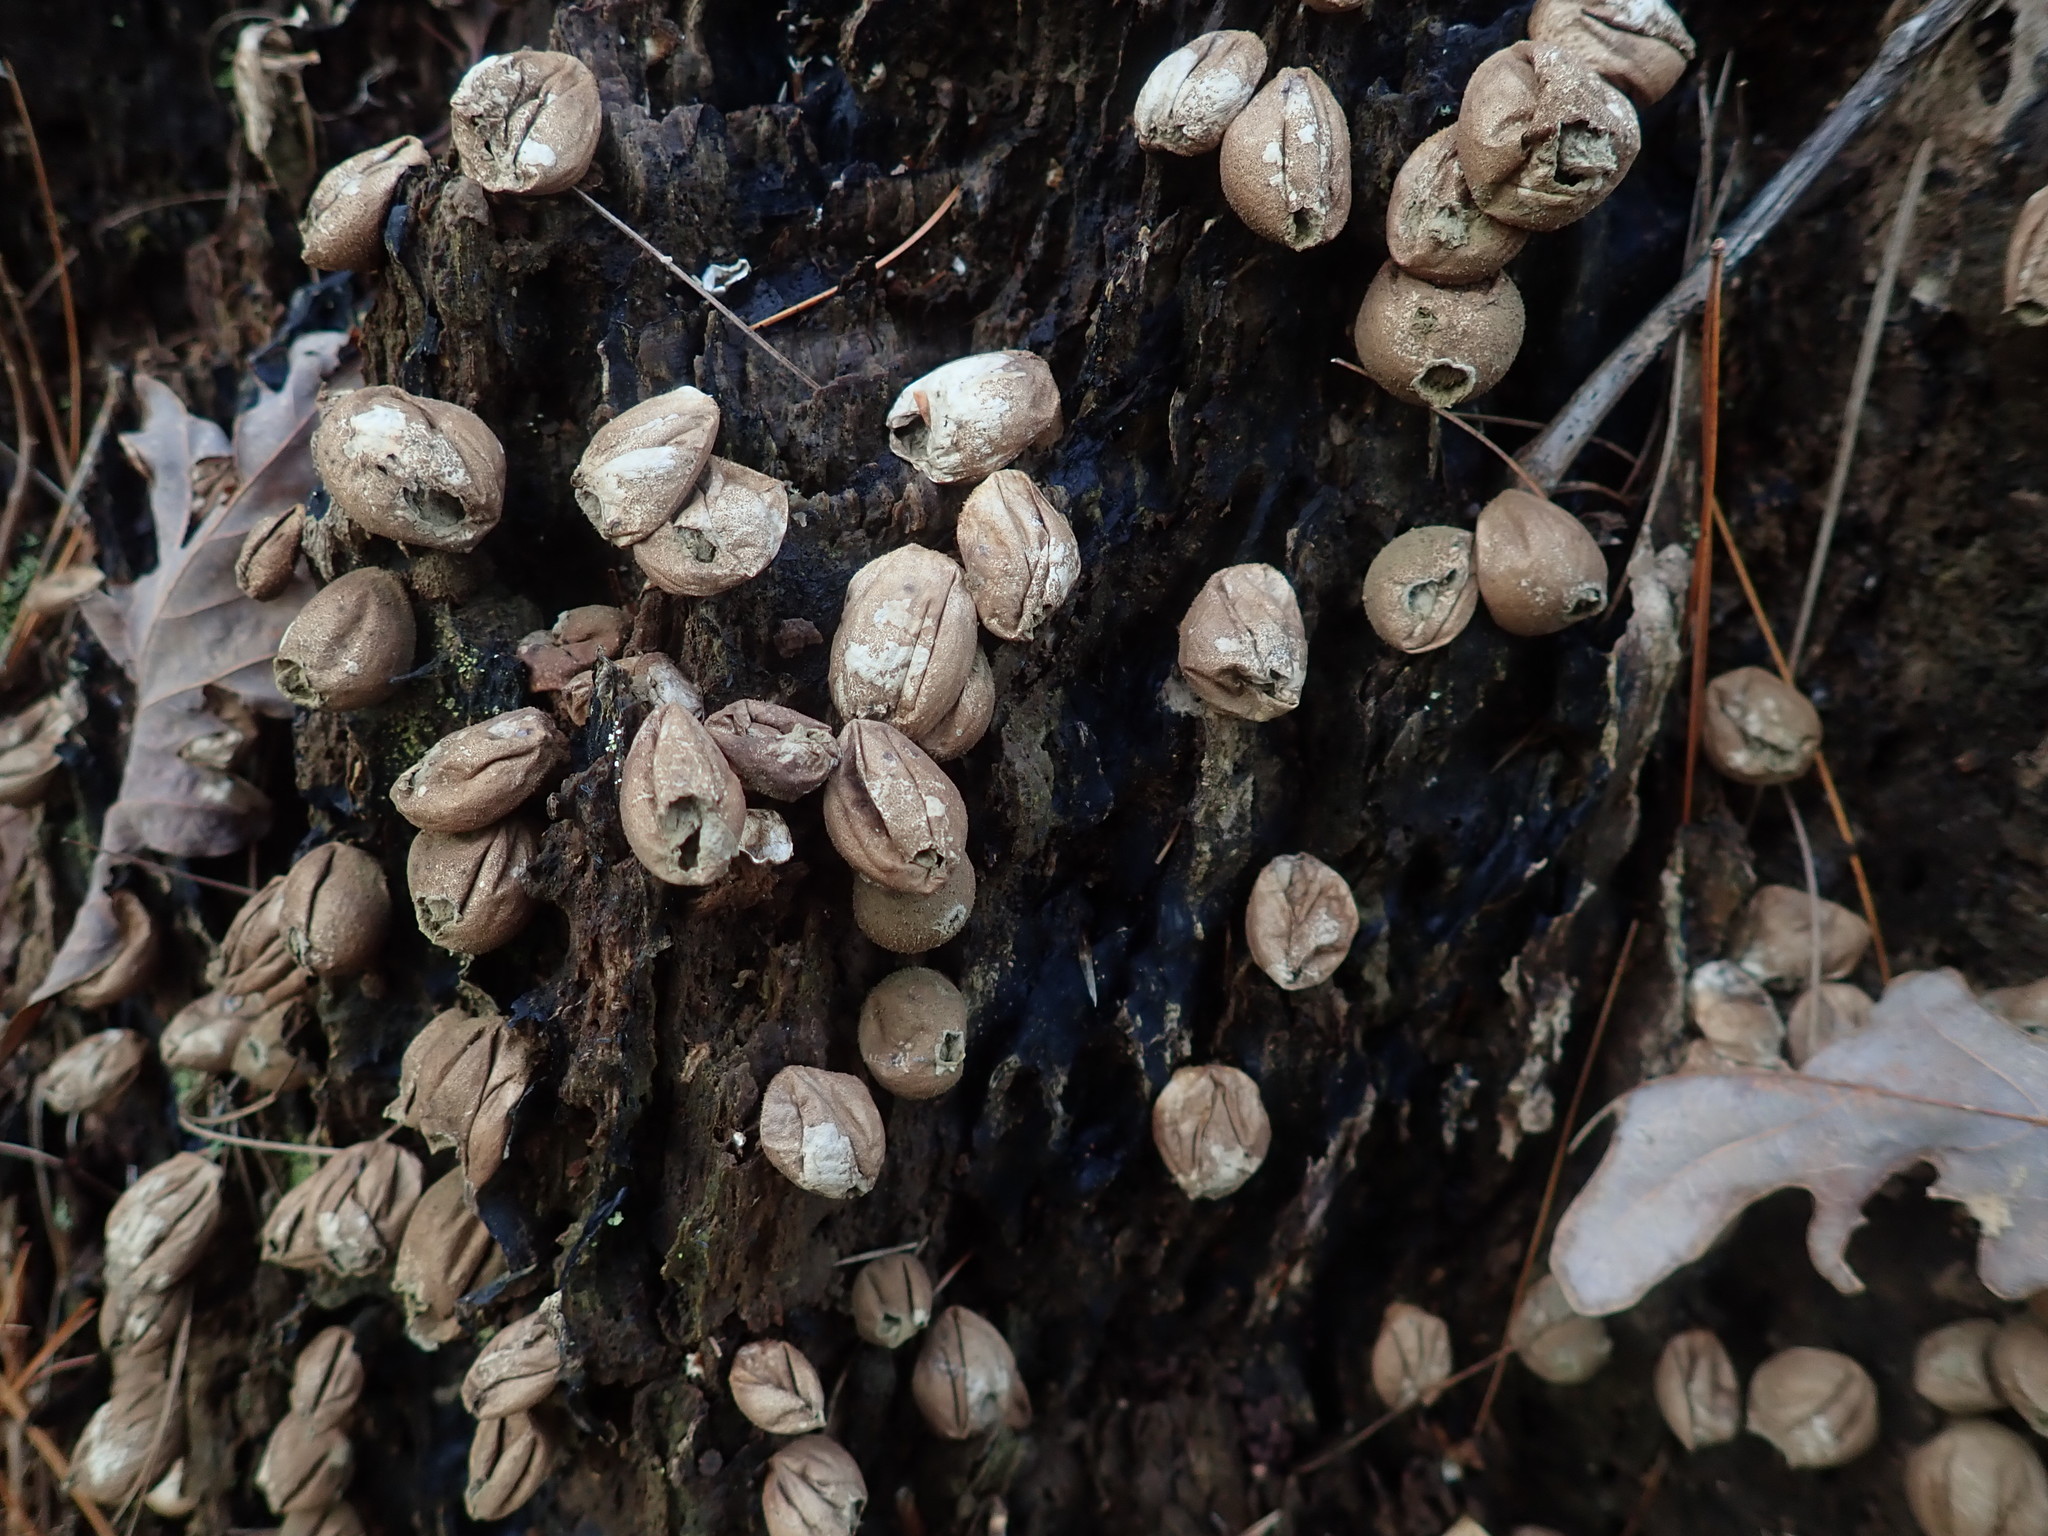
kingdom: Fungi
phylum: Basidiomycota
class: Agaricomycetes
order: Agaricales
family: Lycoperdaceae
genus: Apioperdon
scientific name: Apioperdon pyriforme
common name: Pear-shaped puffball
